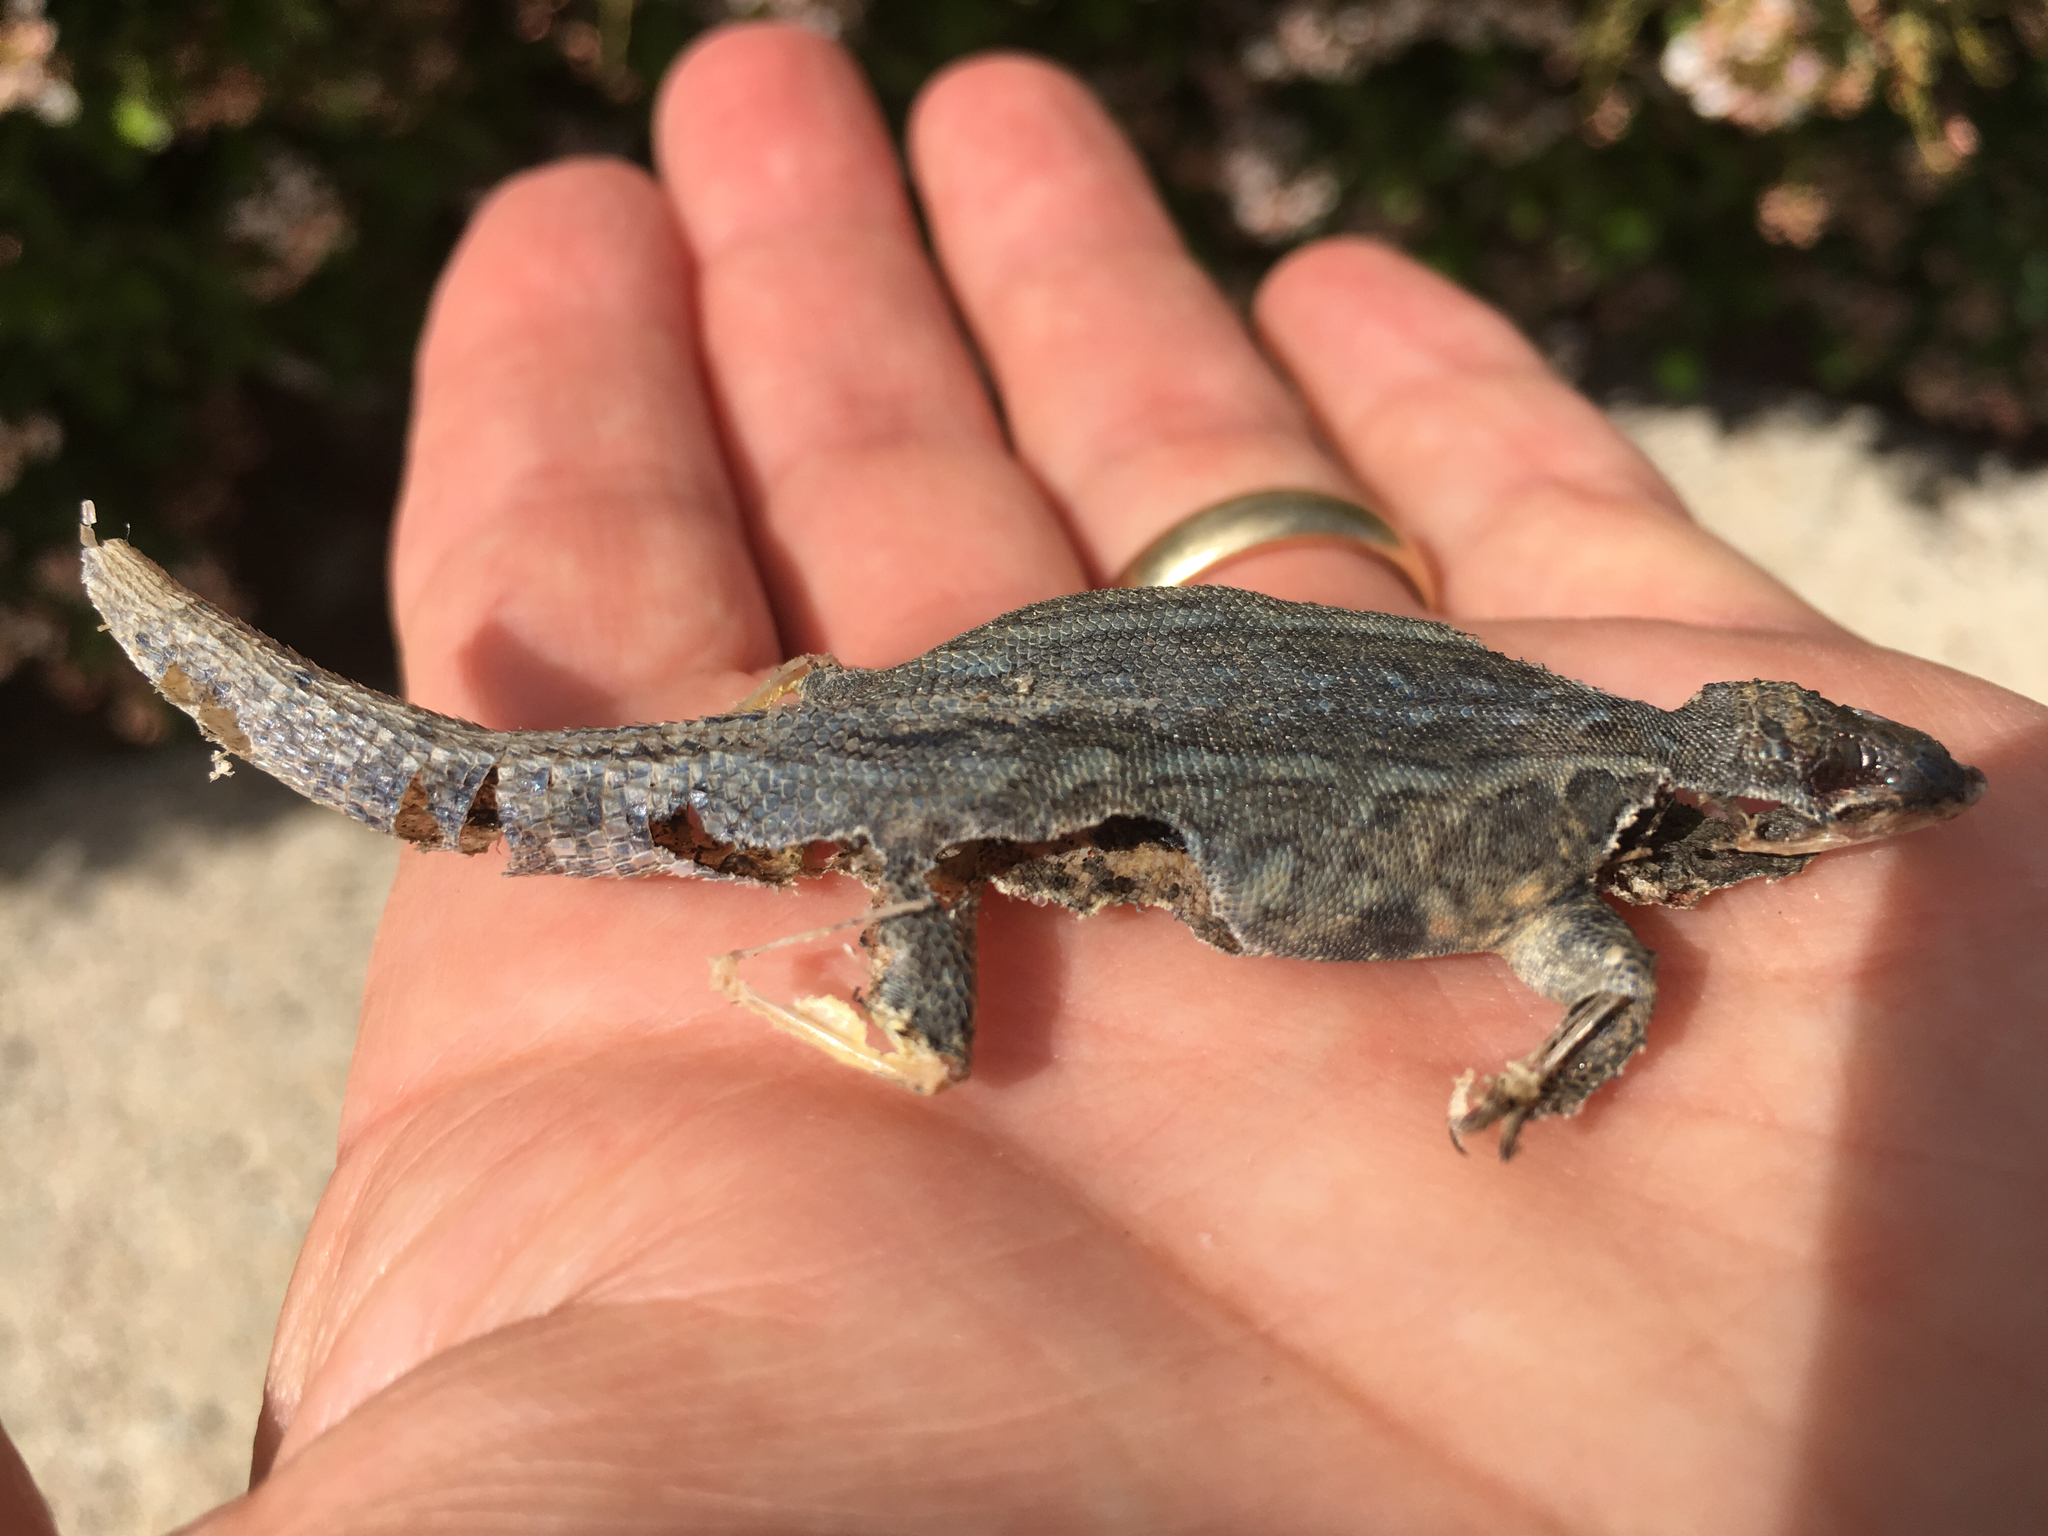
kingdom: Animalia
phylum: Chordata
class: Squamata
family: Phrynosomatidae
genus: Uta
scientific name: Uta stansburiana
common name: Side-blotched lizard
